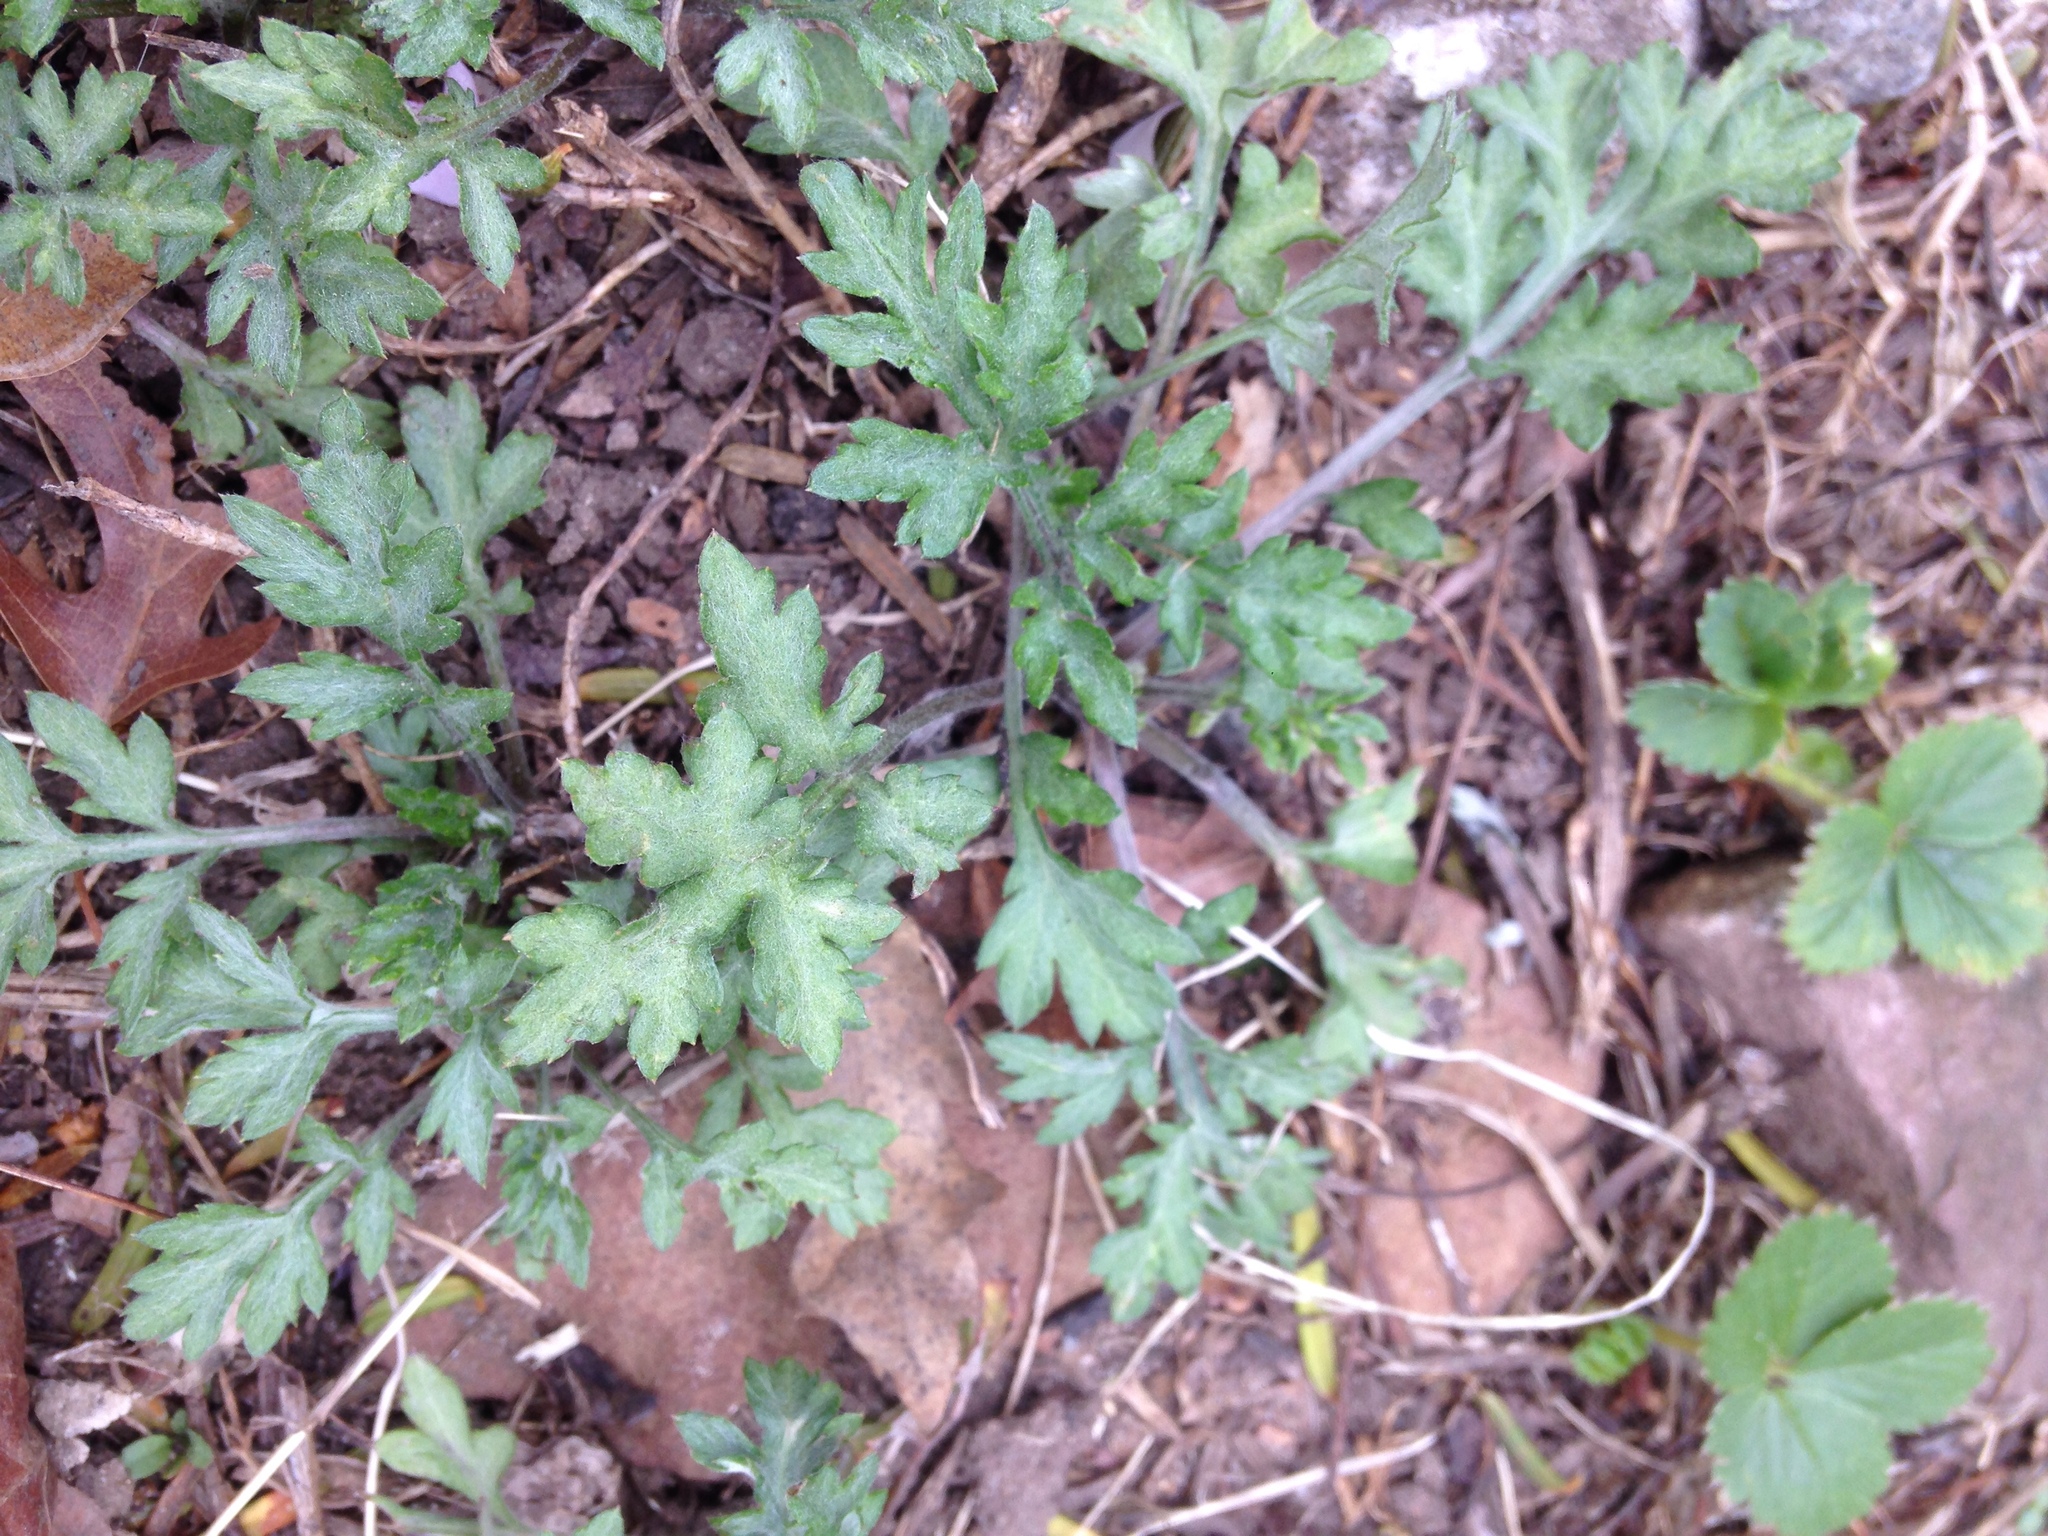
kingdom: Plantae
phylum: Tracheophyta
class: Magnoliopsida
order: Asterales
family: Asteraceae
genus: Artemisia
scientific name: Artemisia vulgaris
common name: Mugwort
